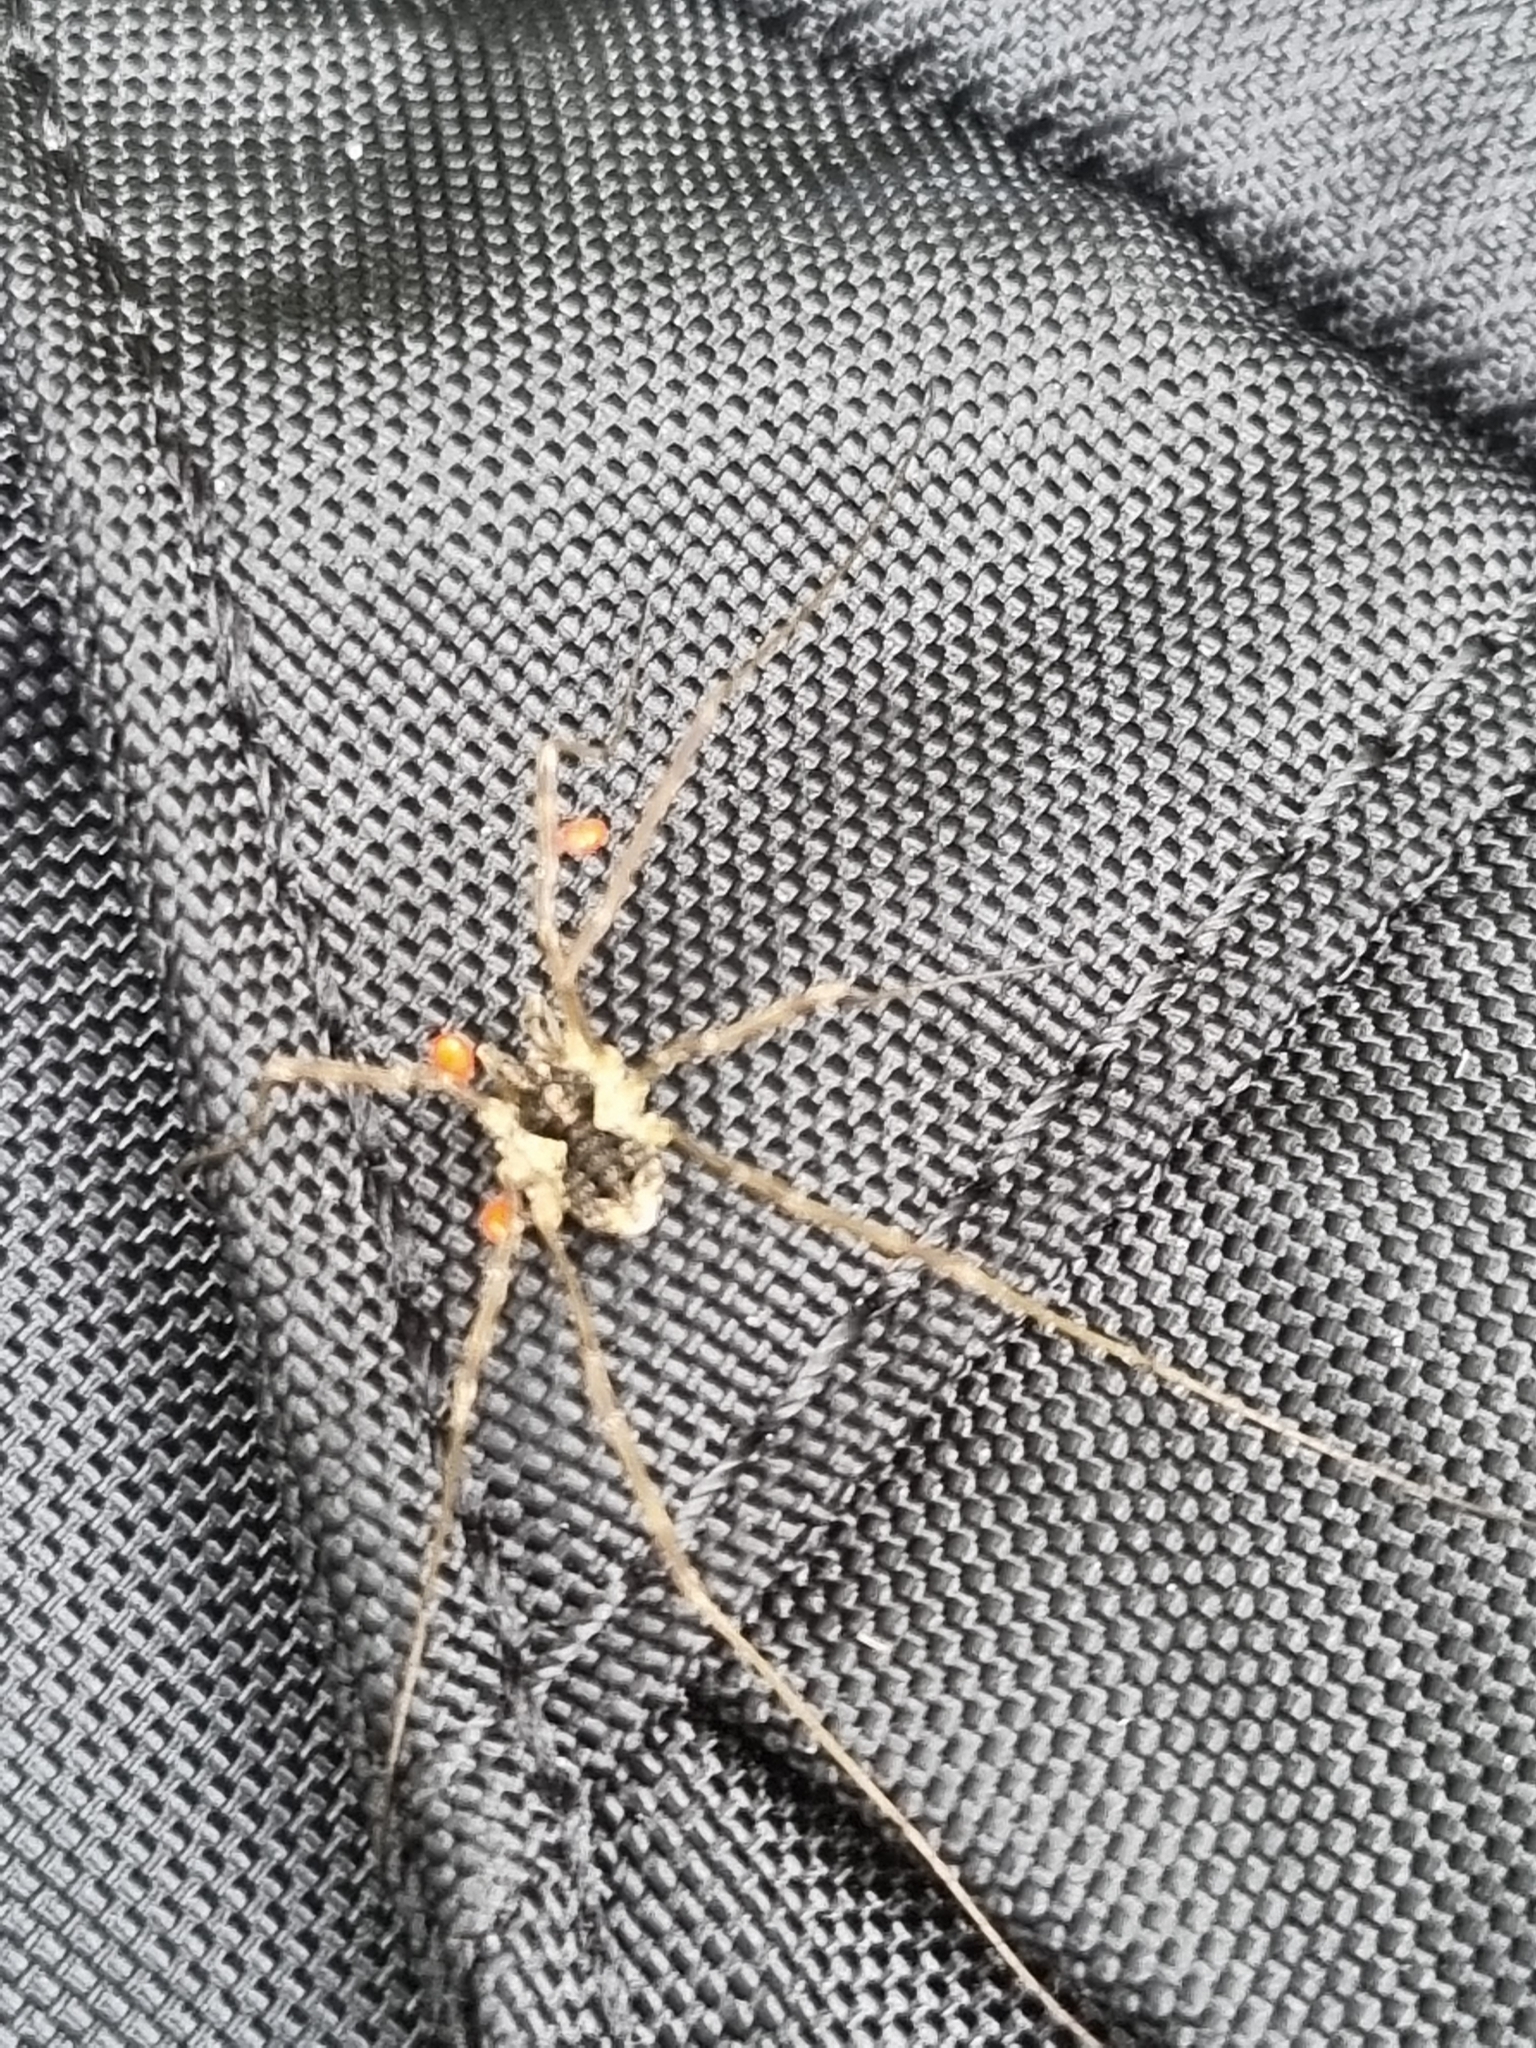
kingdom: Animalia
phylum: Arthropoda
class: Arachnida
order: Opiliones
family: Phalangiidae
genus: Mitopus
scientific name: Mitopus morio
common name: Saddleback harvestman
